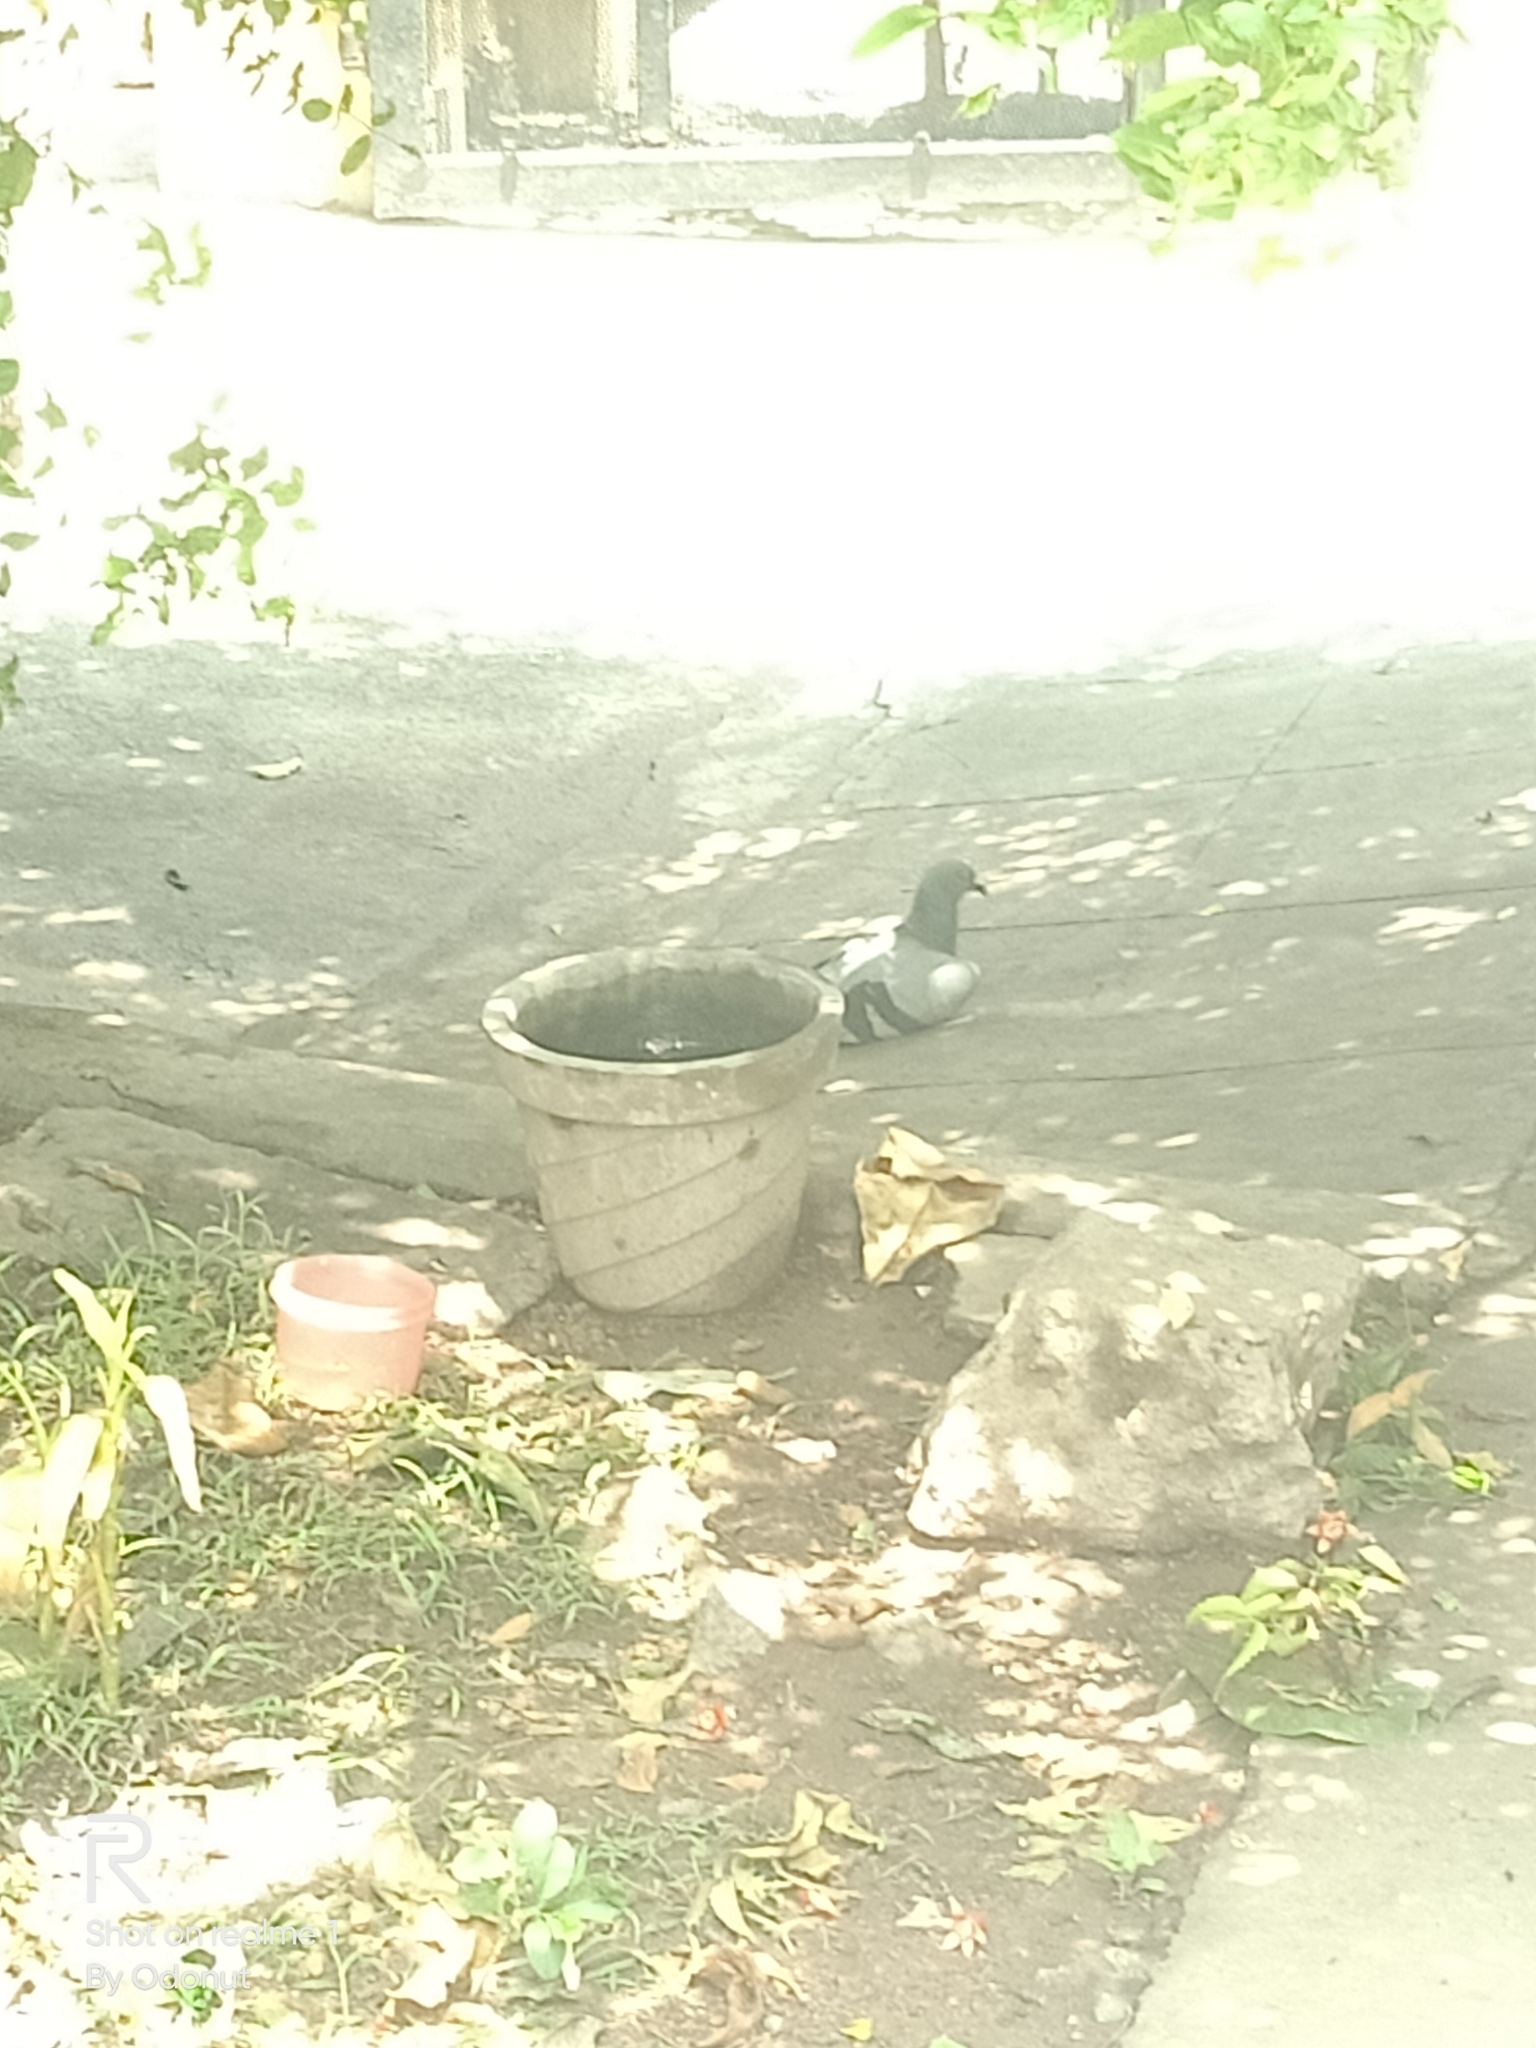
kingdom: Animalia
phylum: Chordata
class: Aves
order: Columbiformes
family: Columbidae
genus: Columba
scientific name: Columba livia
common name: Rock pigeon
